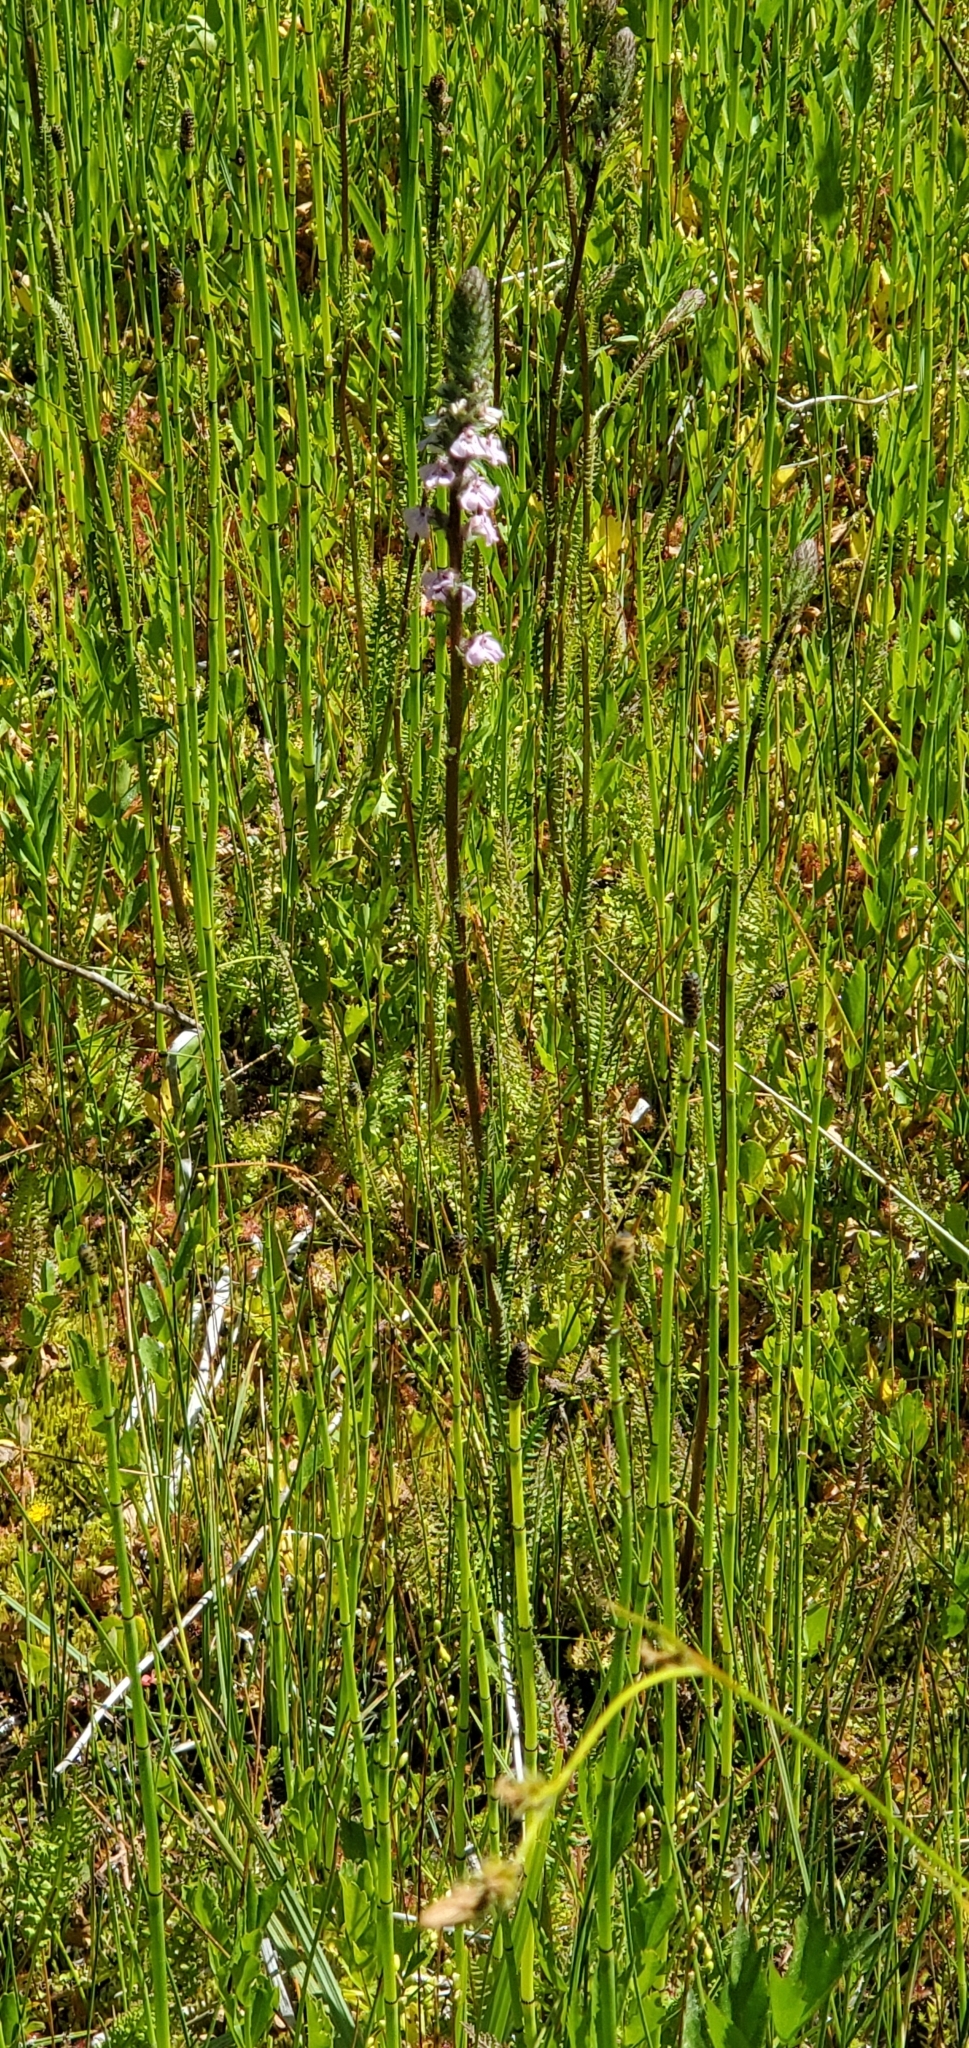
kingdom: Plantae
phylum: Tracheophyta
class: Magnoliopsida
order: Lamiales
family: Orobanchaceae
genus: Pedicularis
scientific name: Pedicularis attollens
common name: Slender pedicularis
